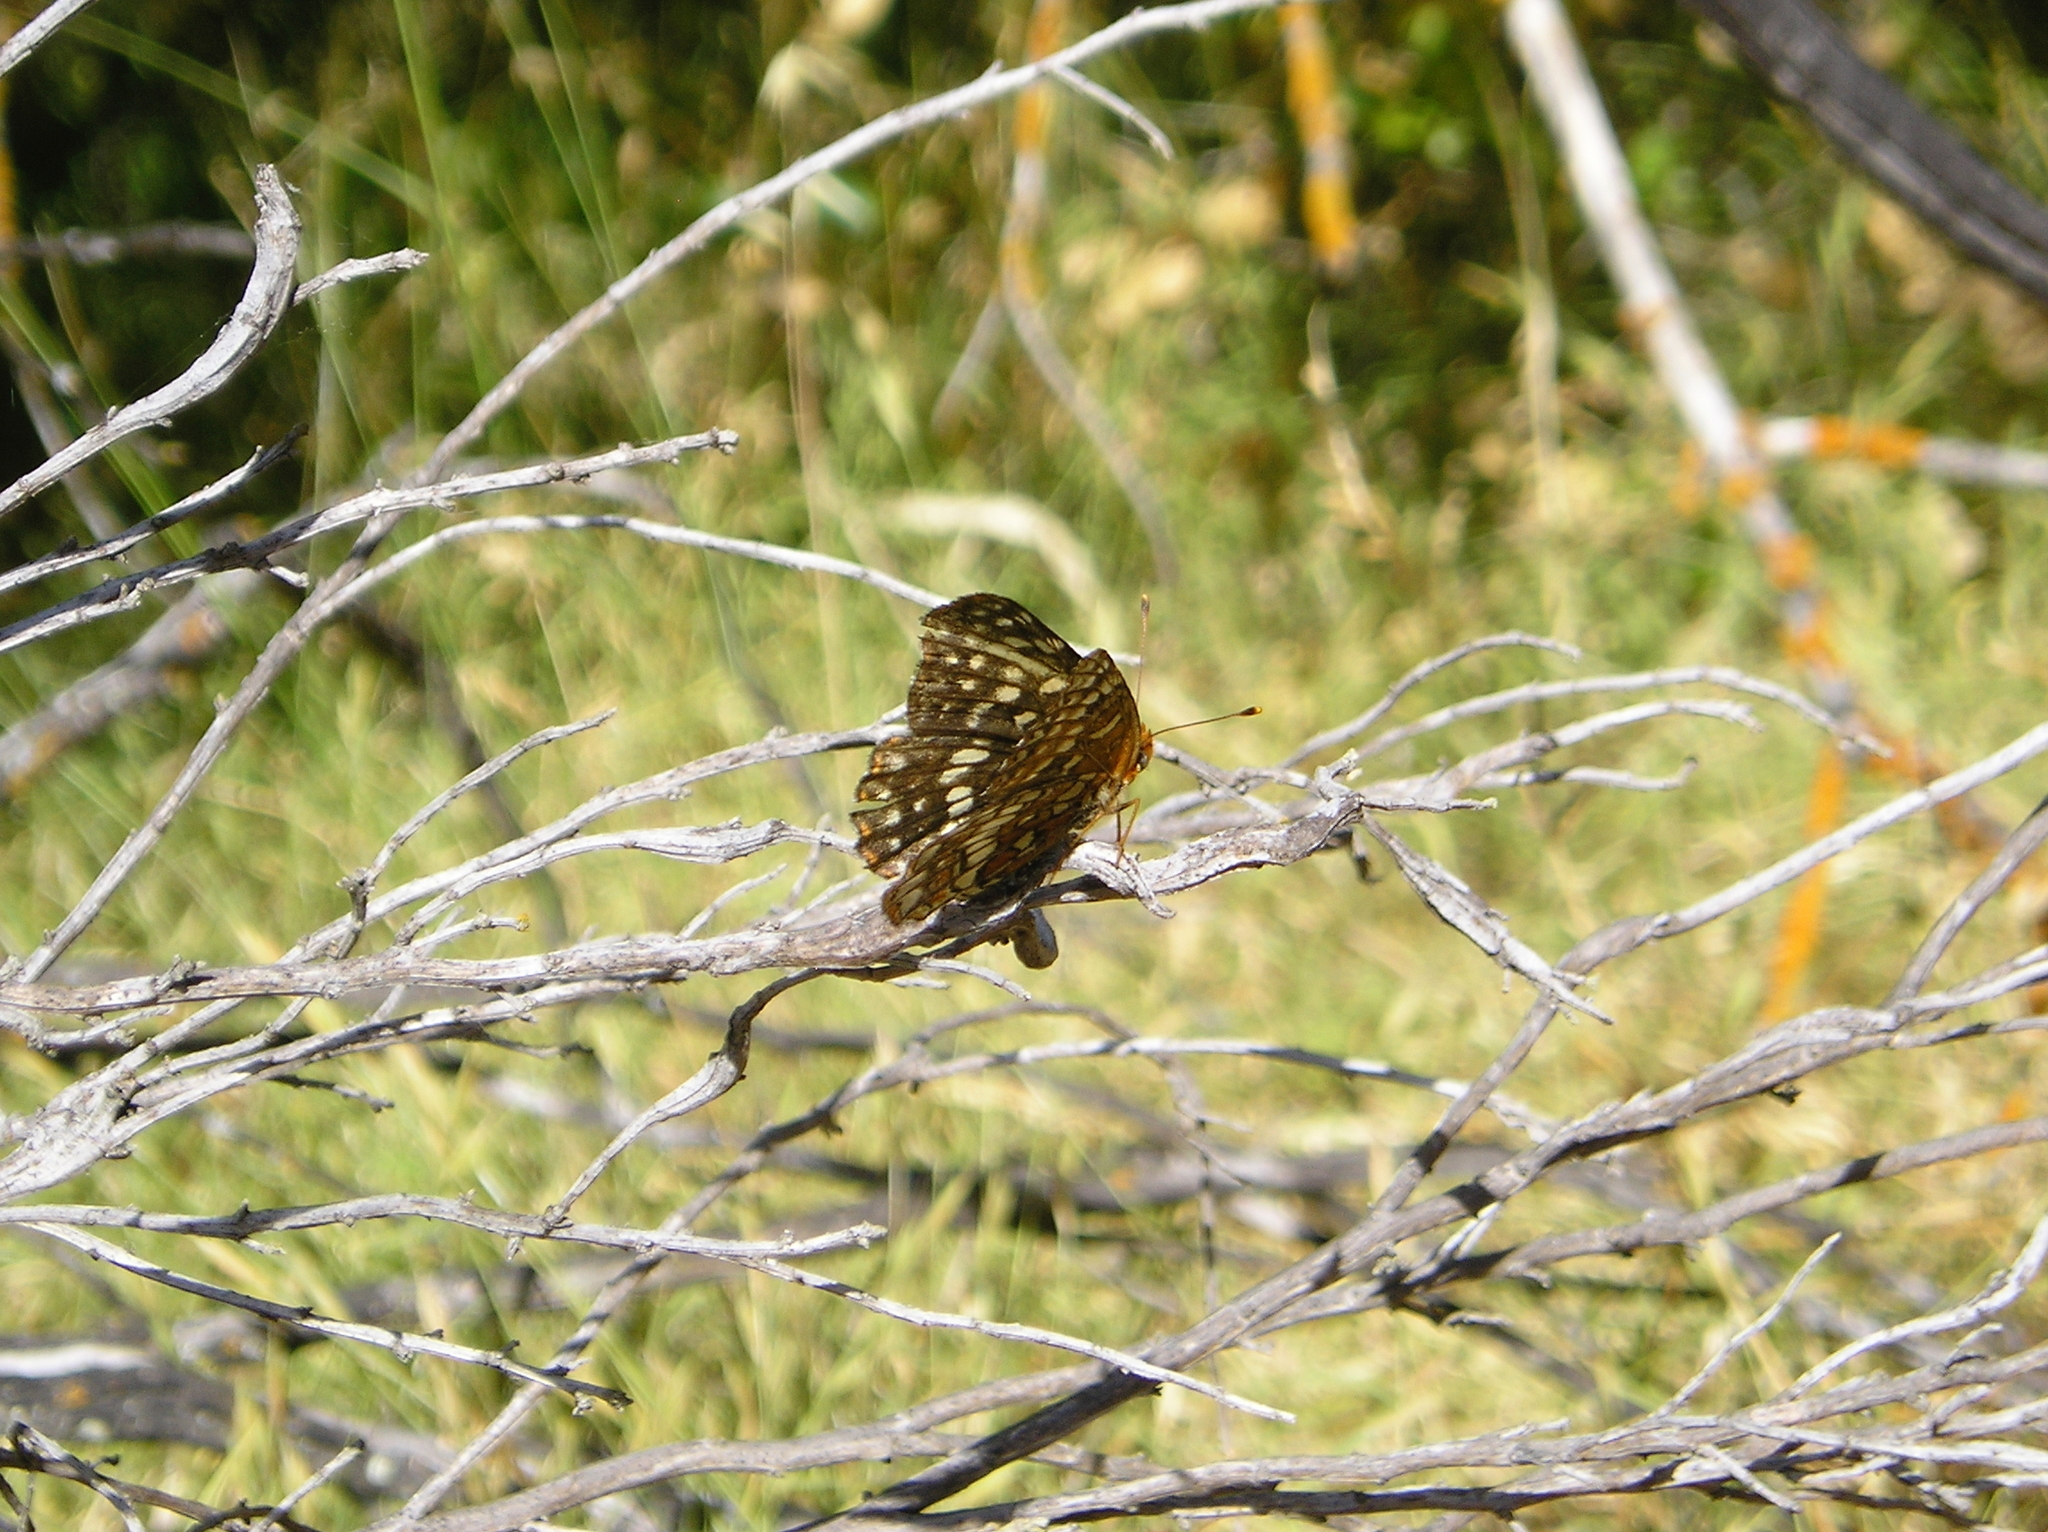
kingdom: Animalia
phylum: Arthropoda
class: Insecta
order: Lepidoptera
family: Nymphalidae
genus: Chlosyne
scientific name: Chlosyne palla
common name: Northern checkerspot
